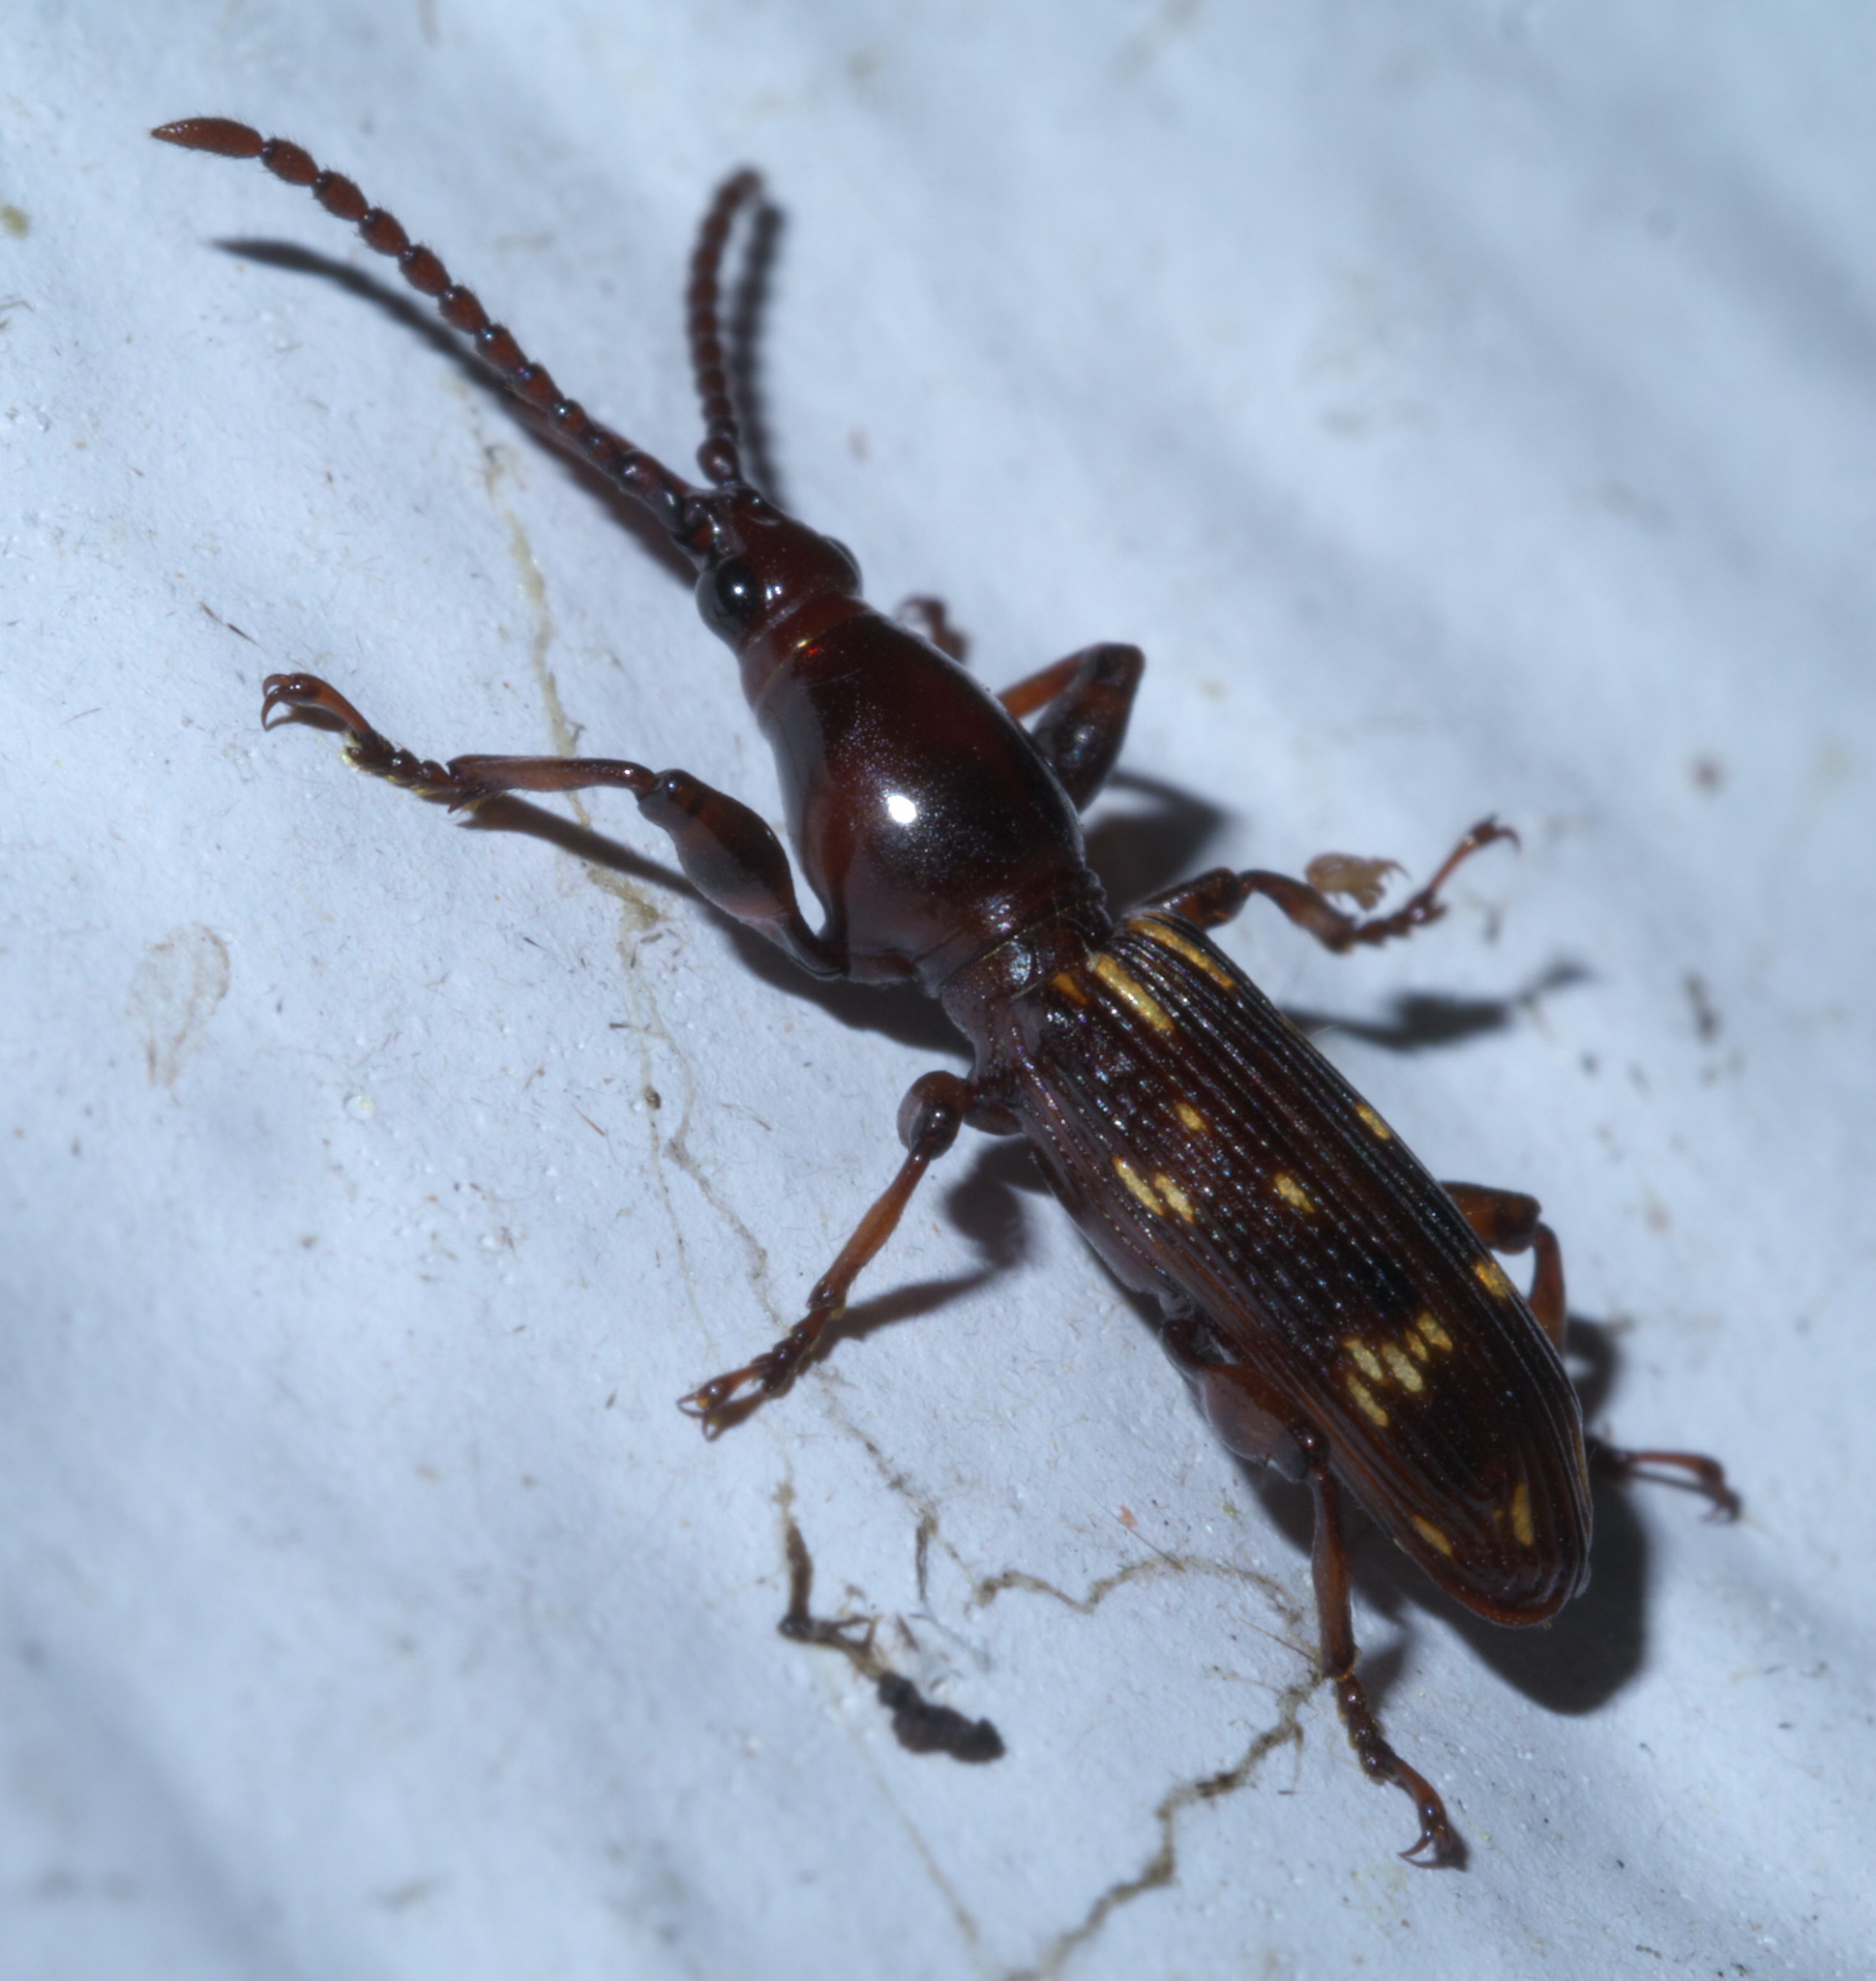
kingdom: Animalia
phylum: Arthropoda
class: Insecta
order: Coleoptera
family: Brentidae
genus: Arrenodes
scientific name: Arrenodes minutus
